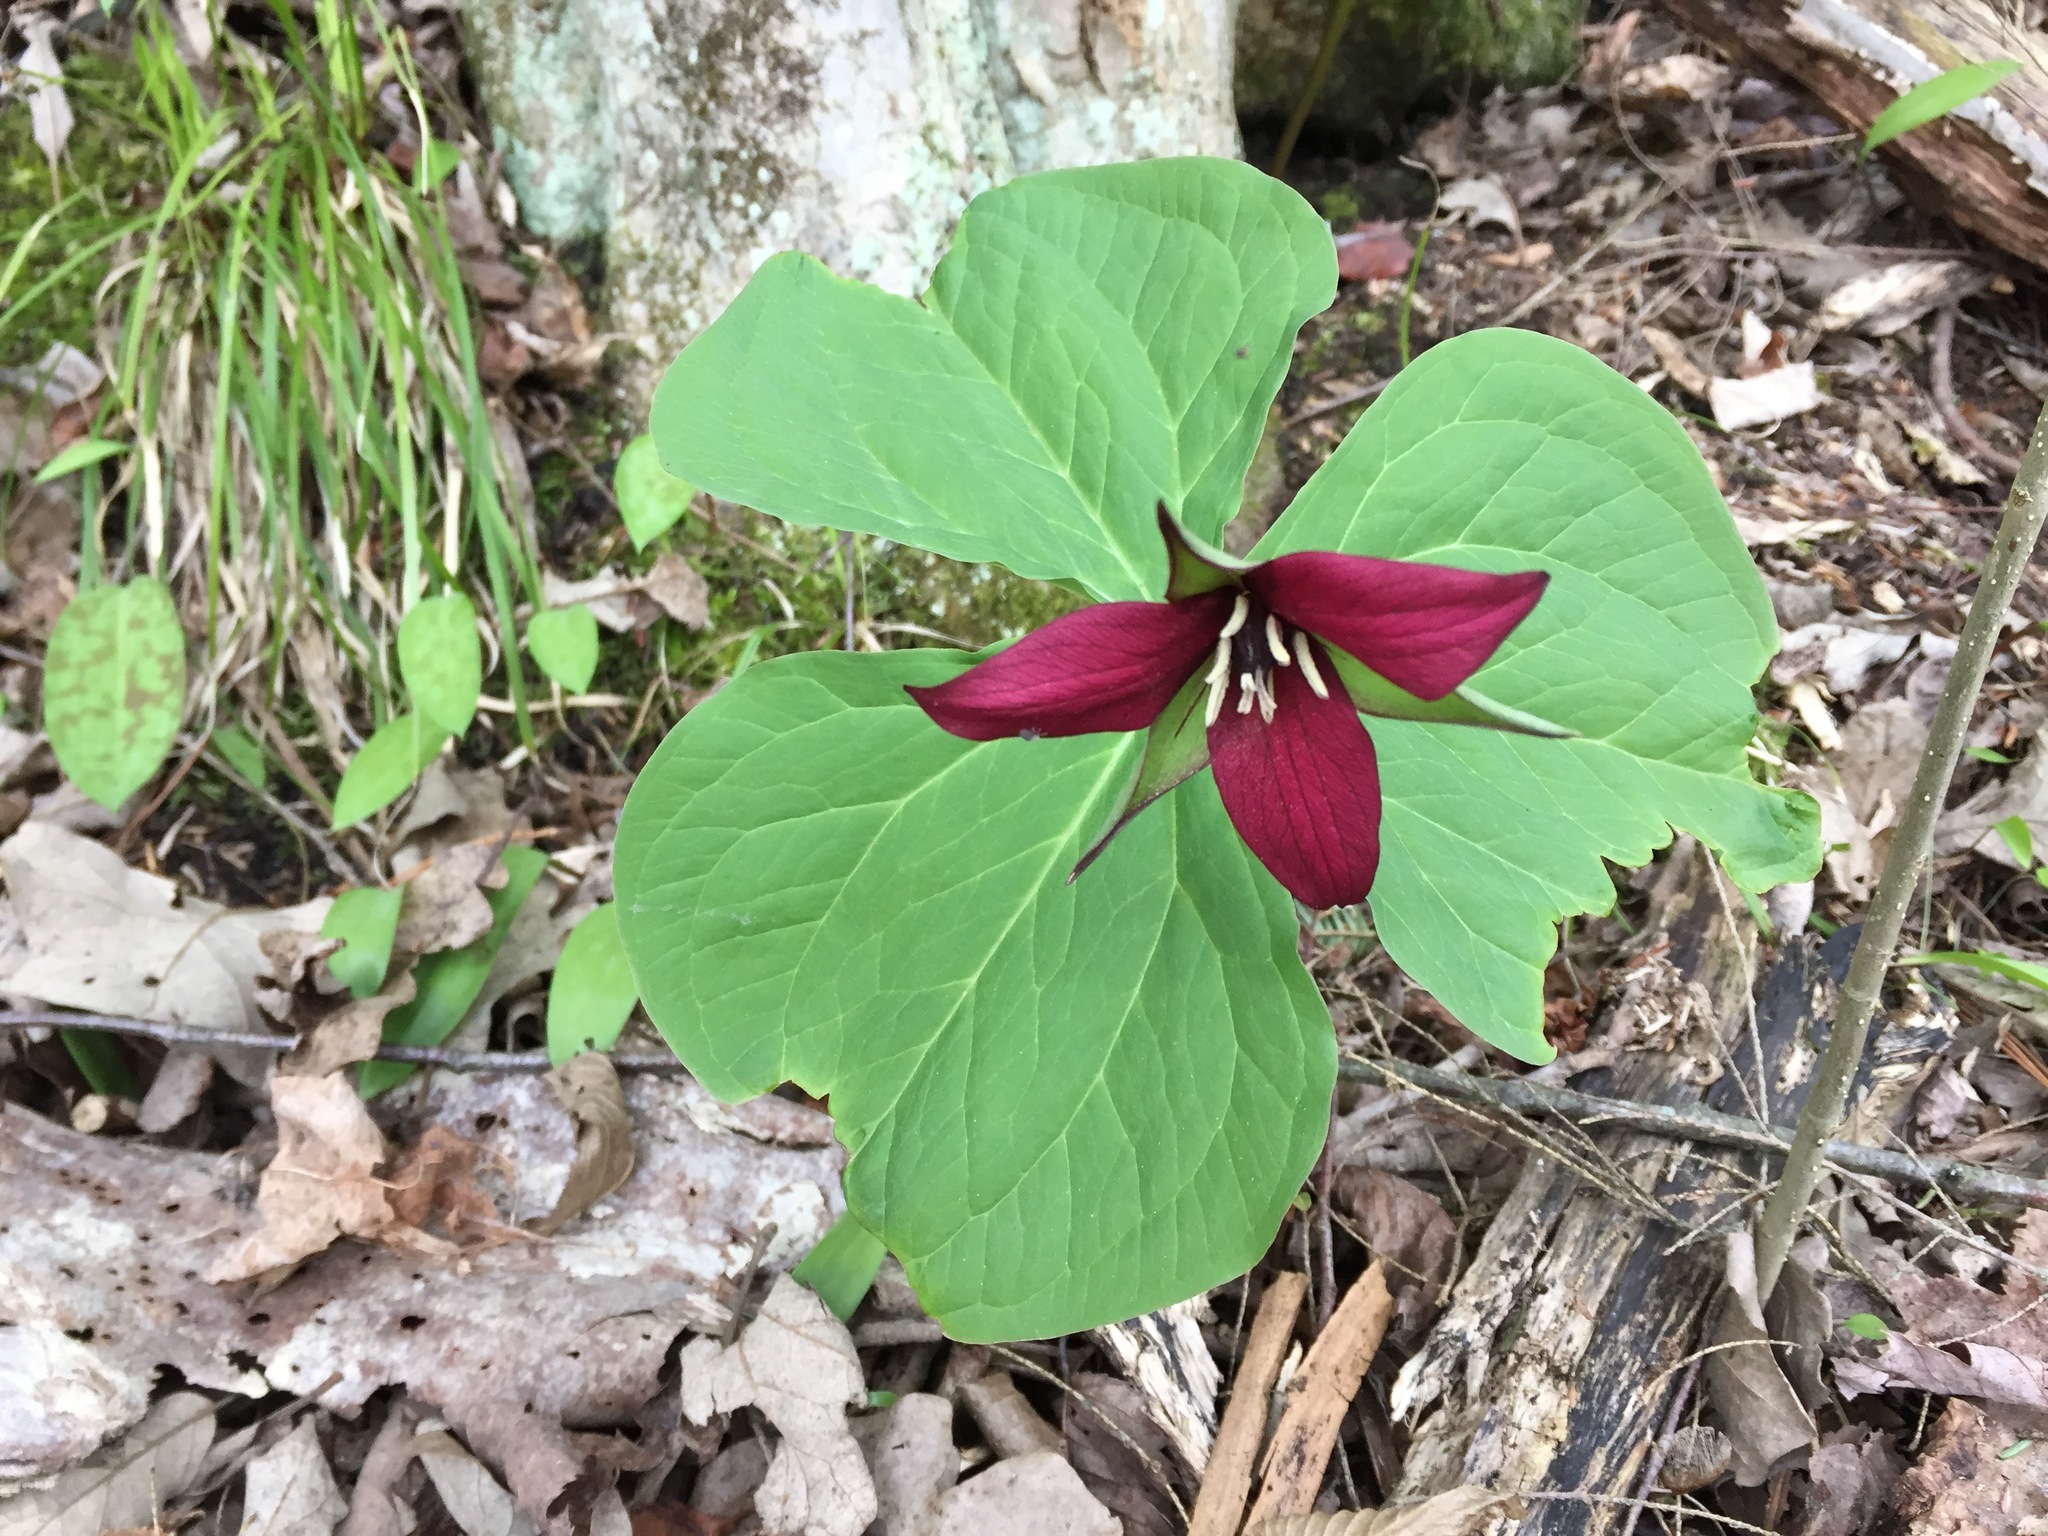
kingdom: Plantae
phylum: Tracheophyta
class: Liliopsida
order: Liliales
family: Melanthiaceae
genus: Trillium
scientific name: Trillium erectum
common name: Purple trillium
